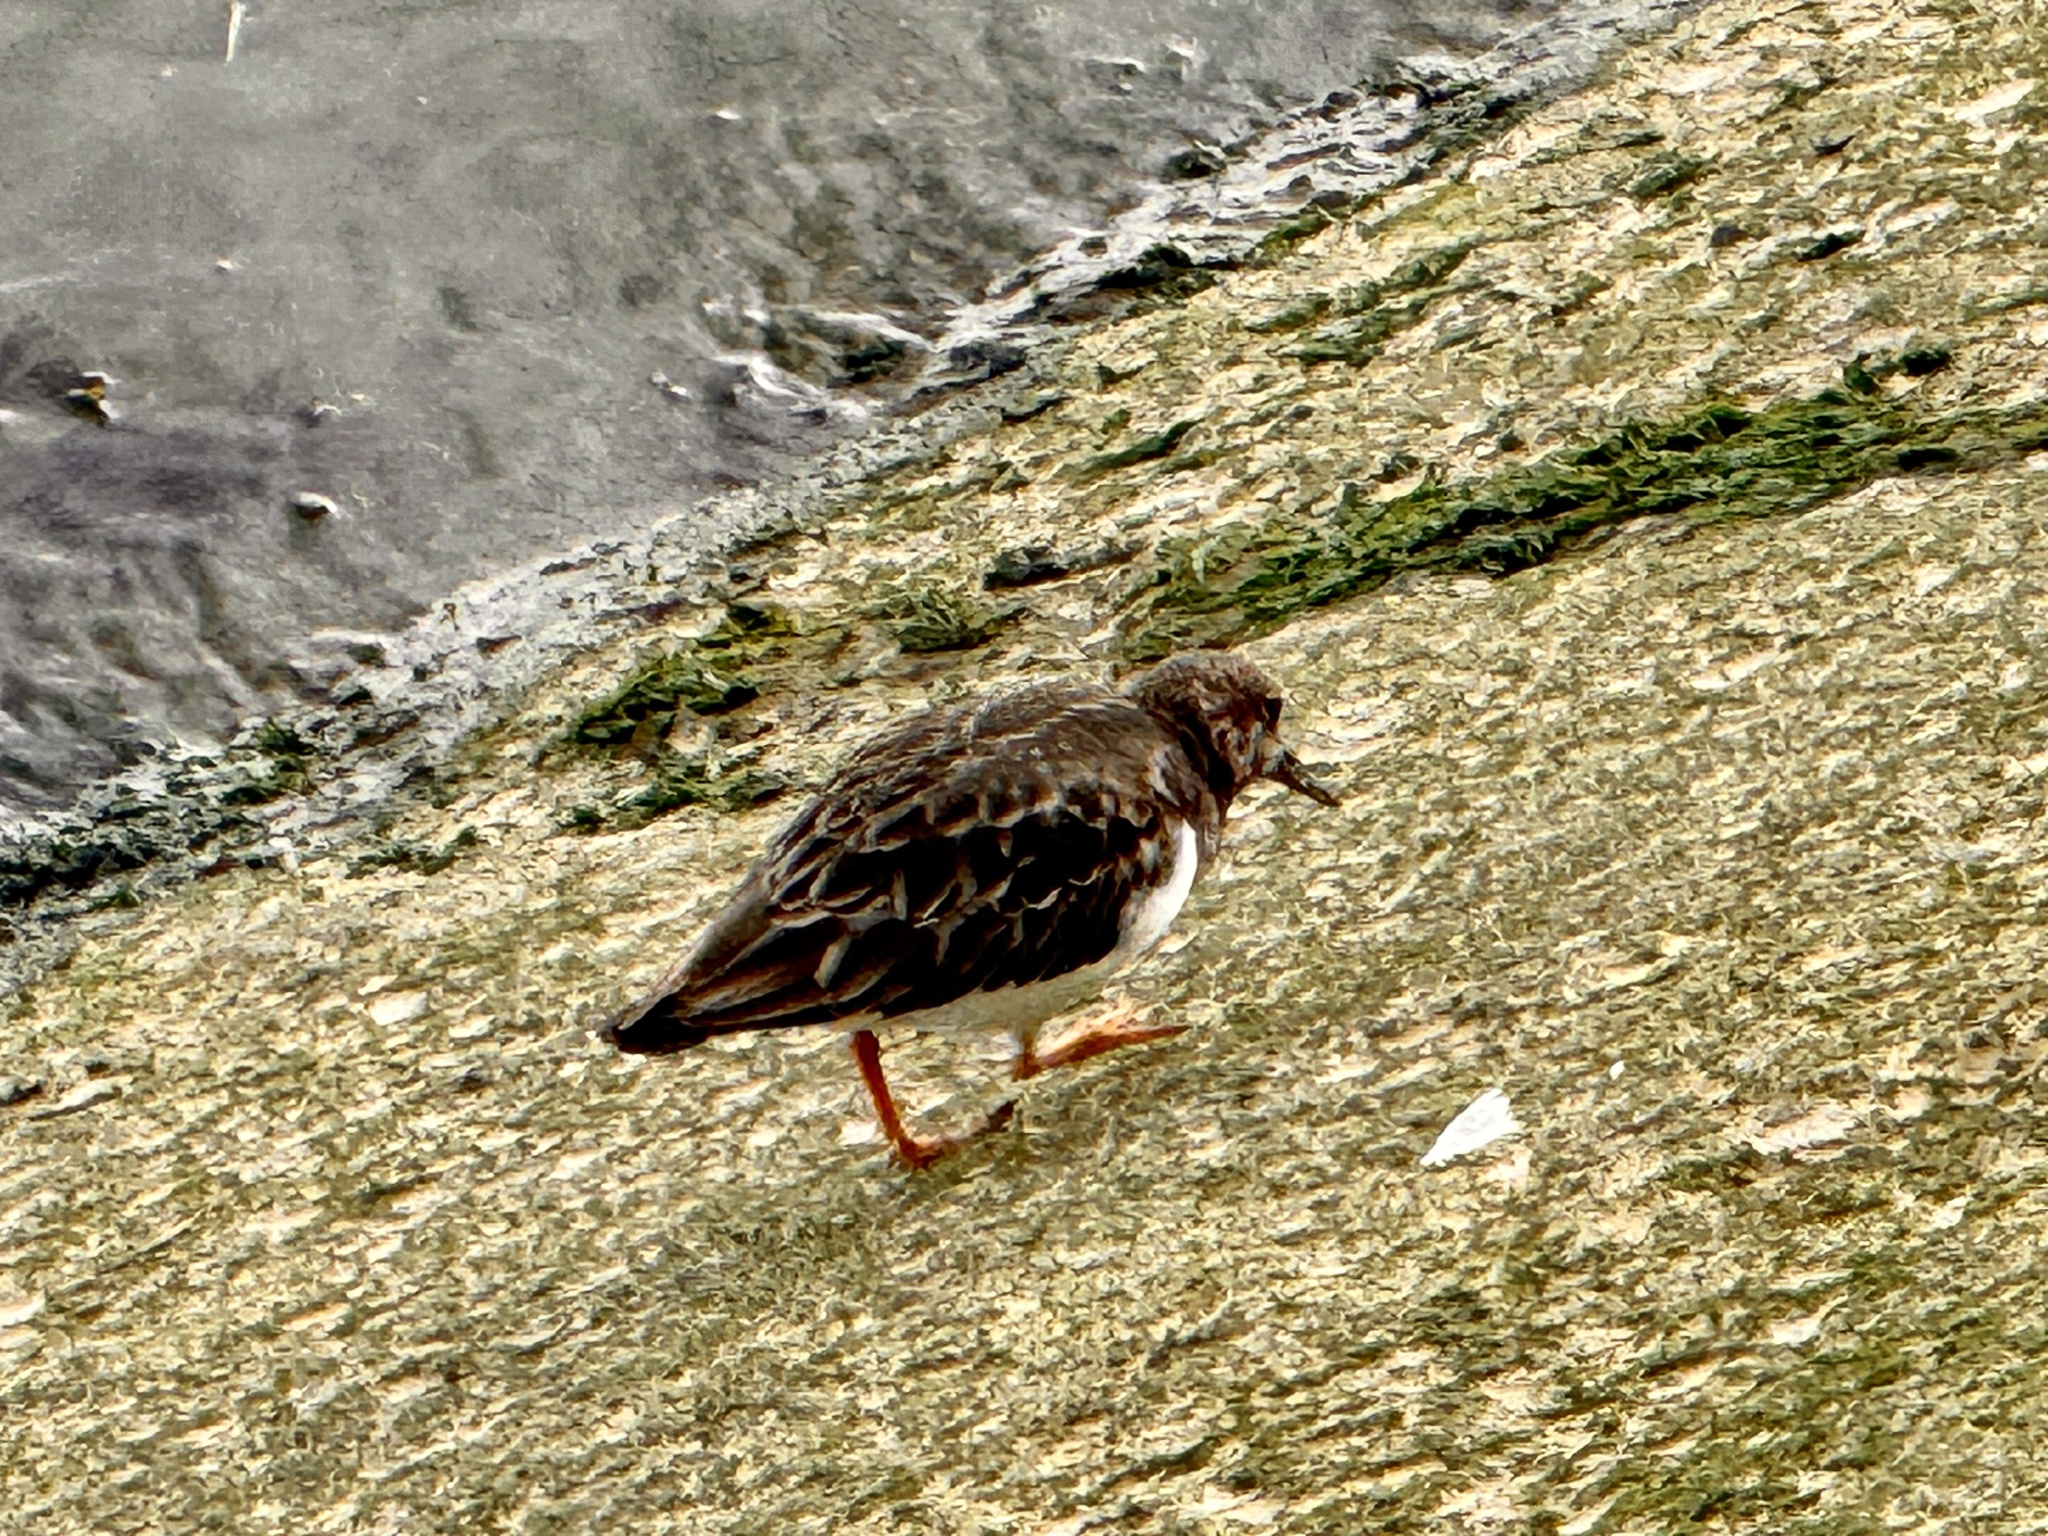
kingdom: Animalia
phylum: Chordata
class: Aves
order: Charadriiformes
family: Scolopacidae
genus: Arenaria
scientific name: Arenaria interpres
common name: Ruddy turnstone
